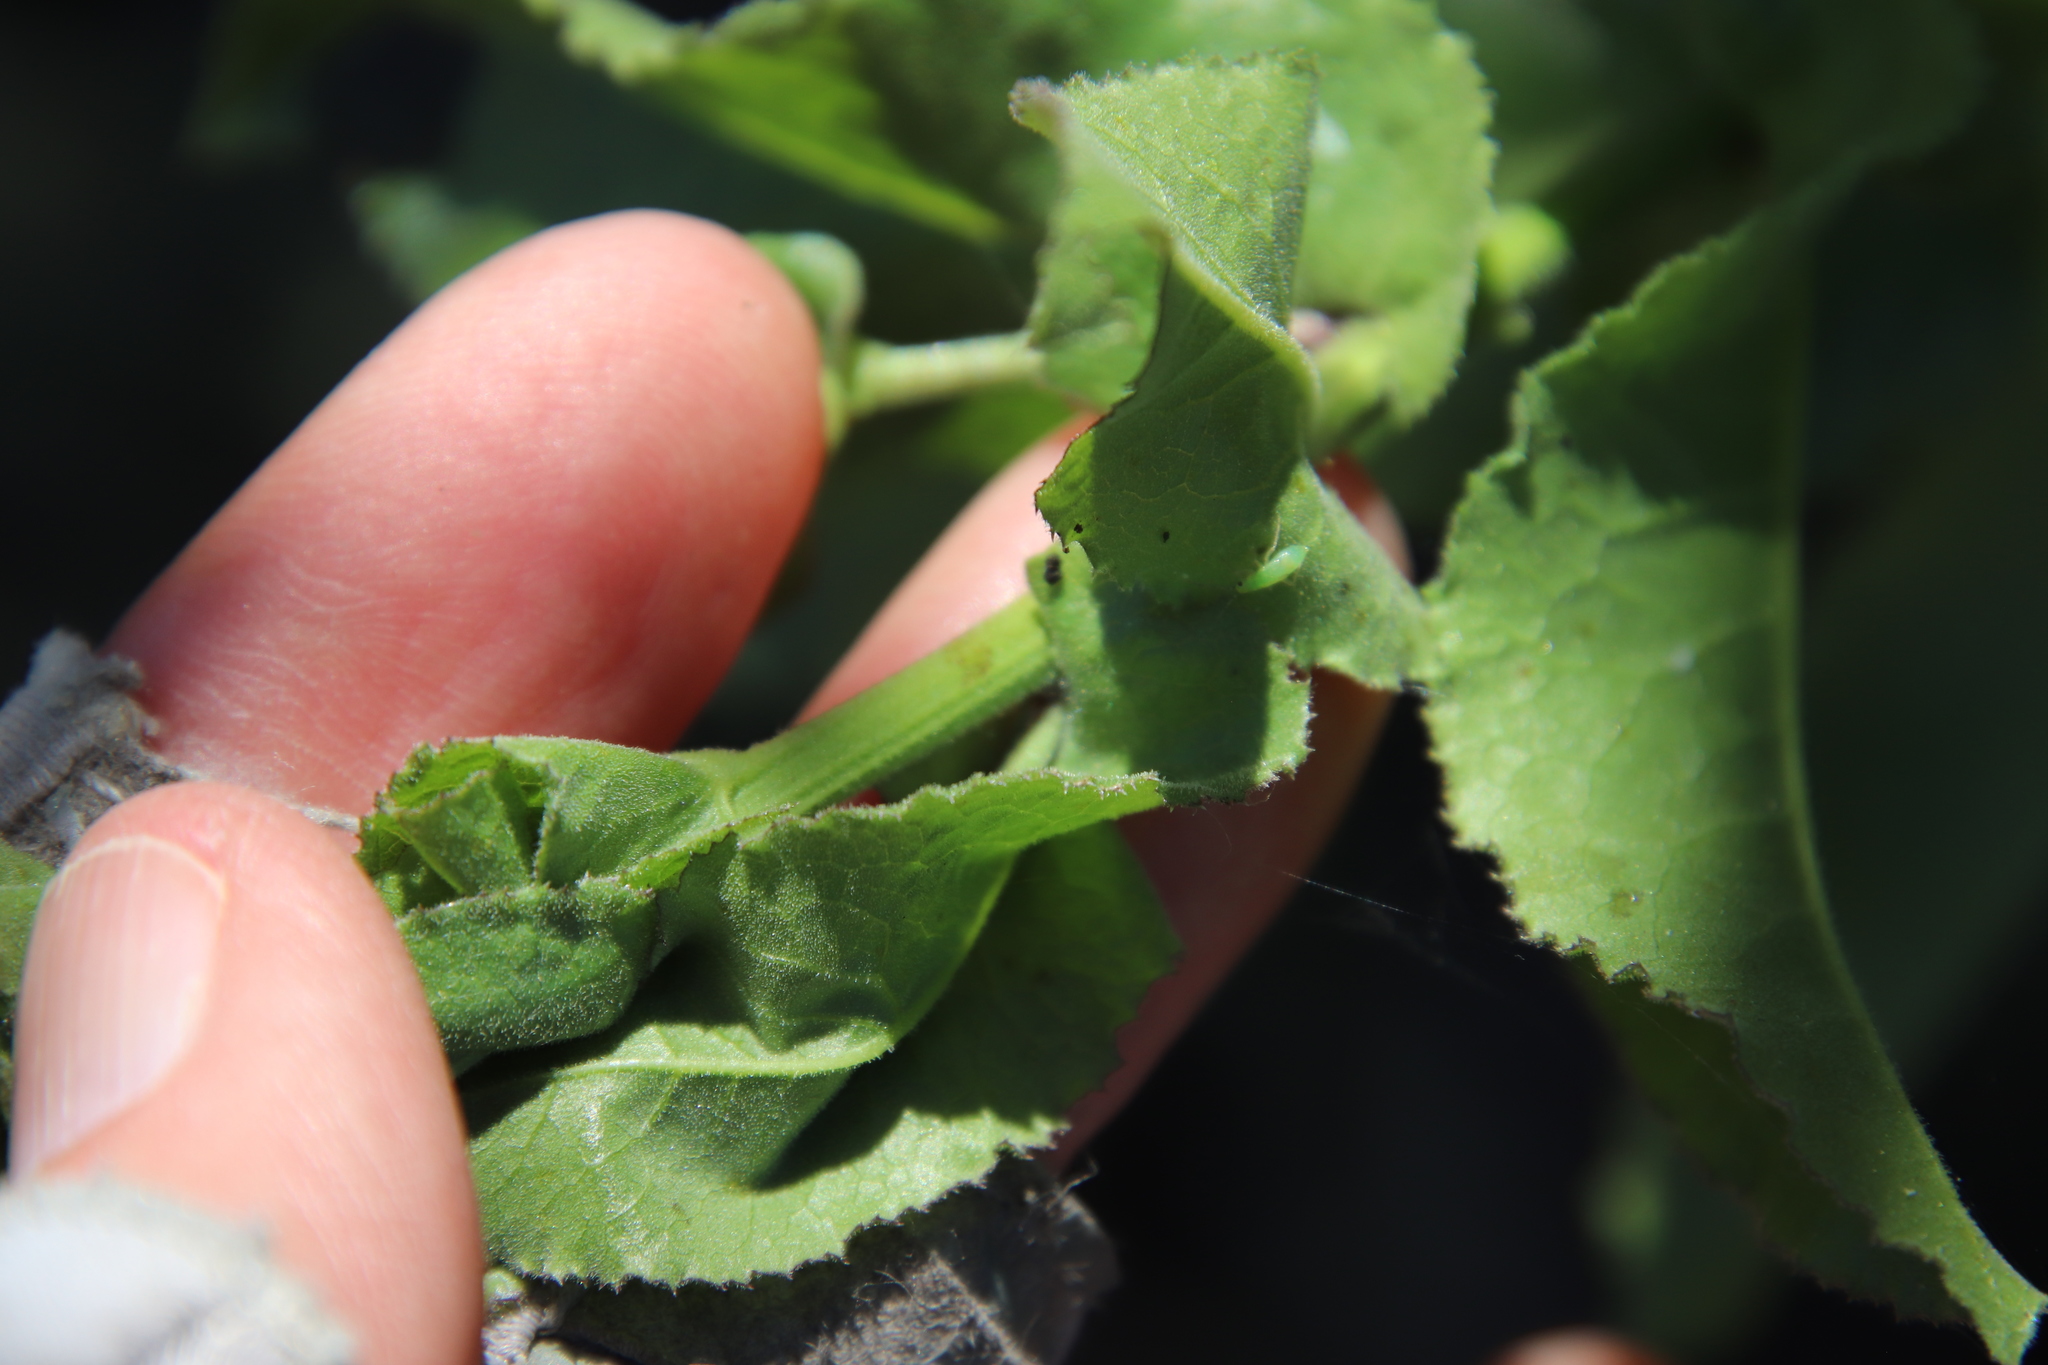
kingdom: Plantae
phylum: Tracheophyta
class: Magnoliopsida
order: Asterales
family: Asteraceae
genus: Acourtia
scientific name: Acourtia microcephala
